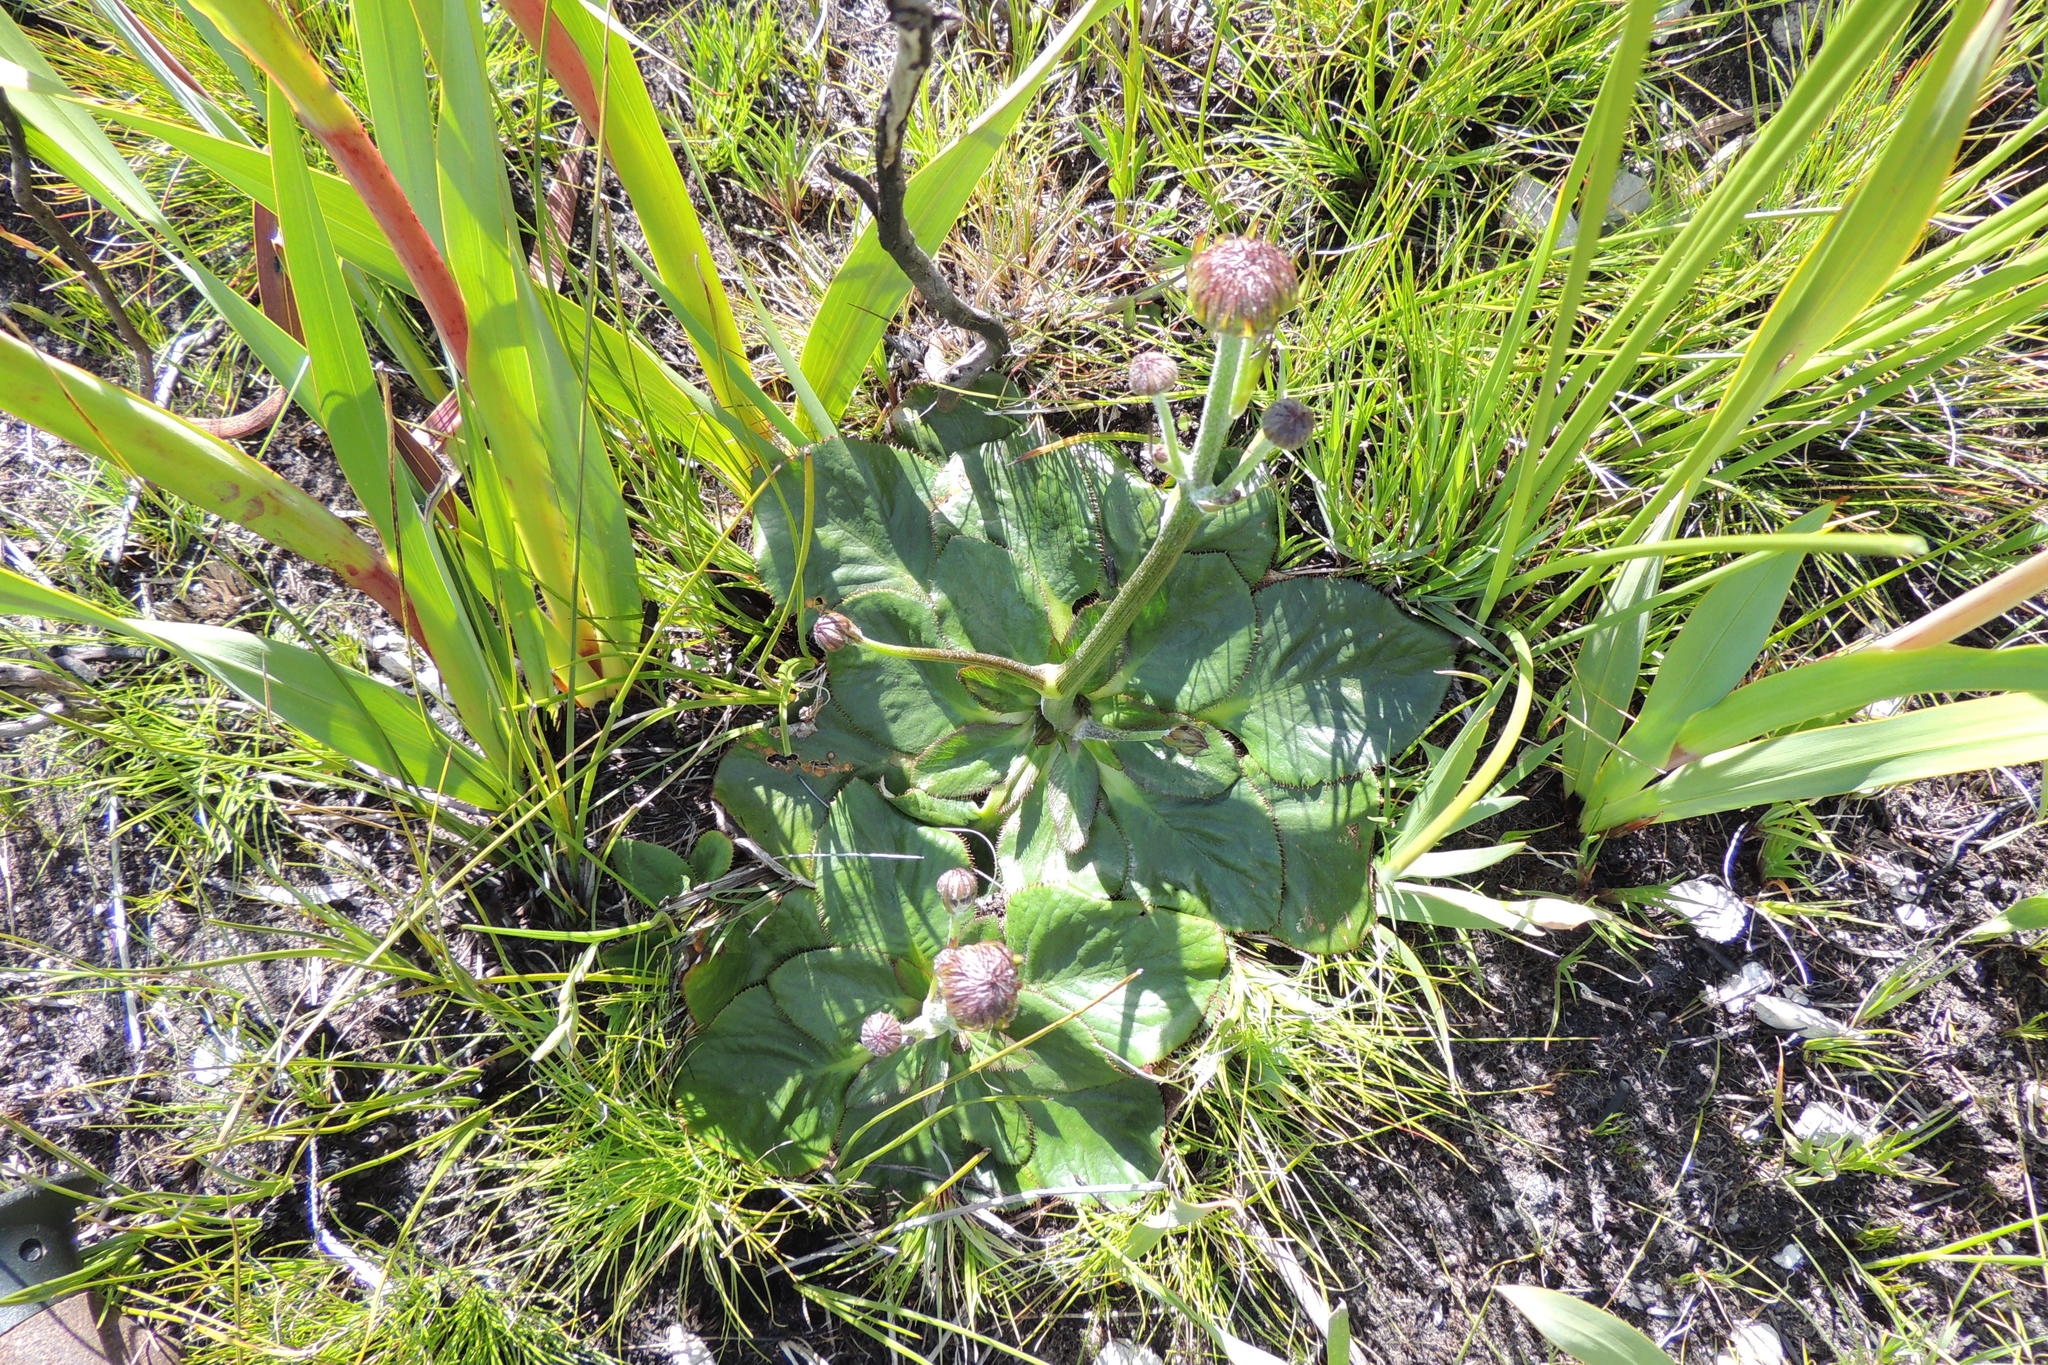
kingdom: Plantae
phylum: Tracheophyta
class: Magnoliopsida
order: Apiales
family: Apiaceae
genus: Hermas
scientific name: Hermas ciliata
